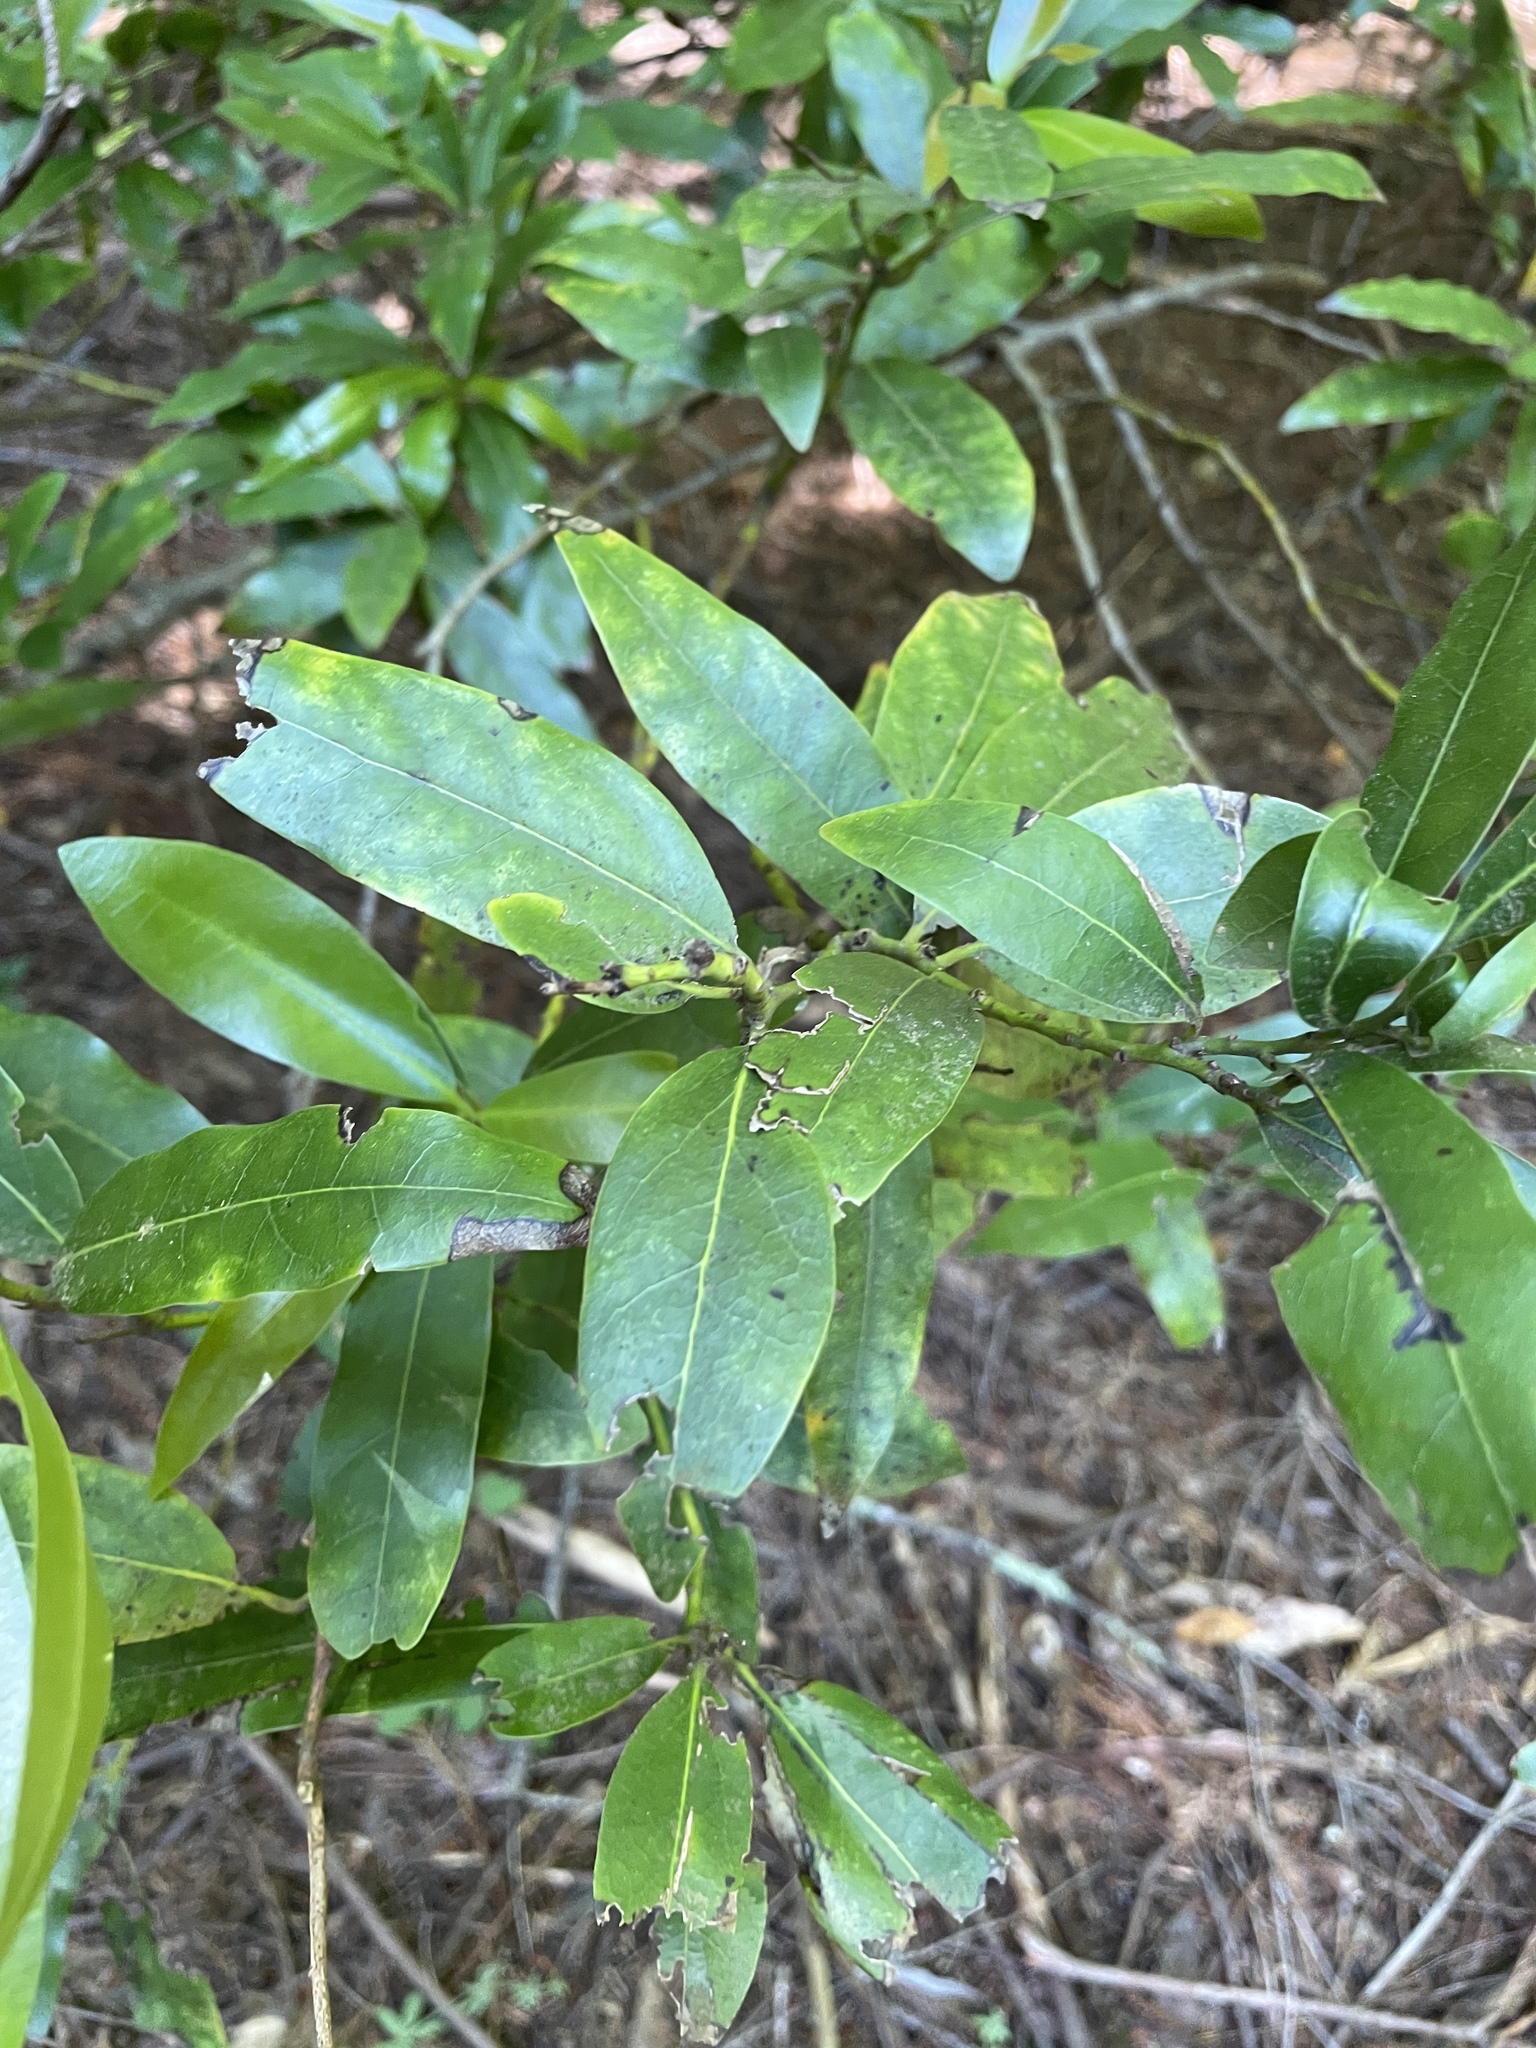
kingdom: Plantae
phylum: Tracheophyta
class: Magnoliopsida
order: Laurales
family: Lauraceae
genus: Umbellularia
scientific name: Umbellularia californica
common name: California bay
